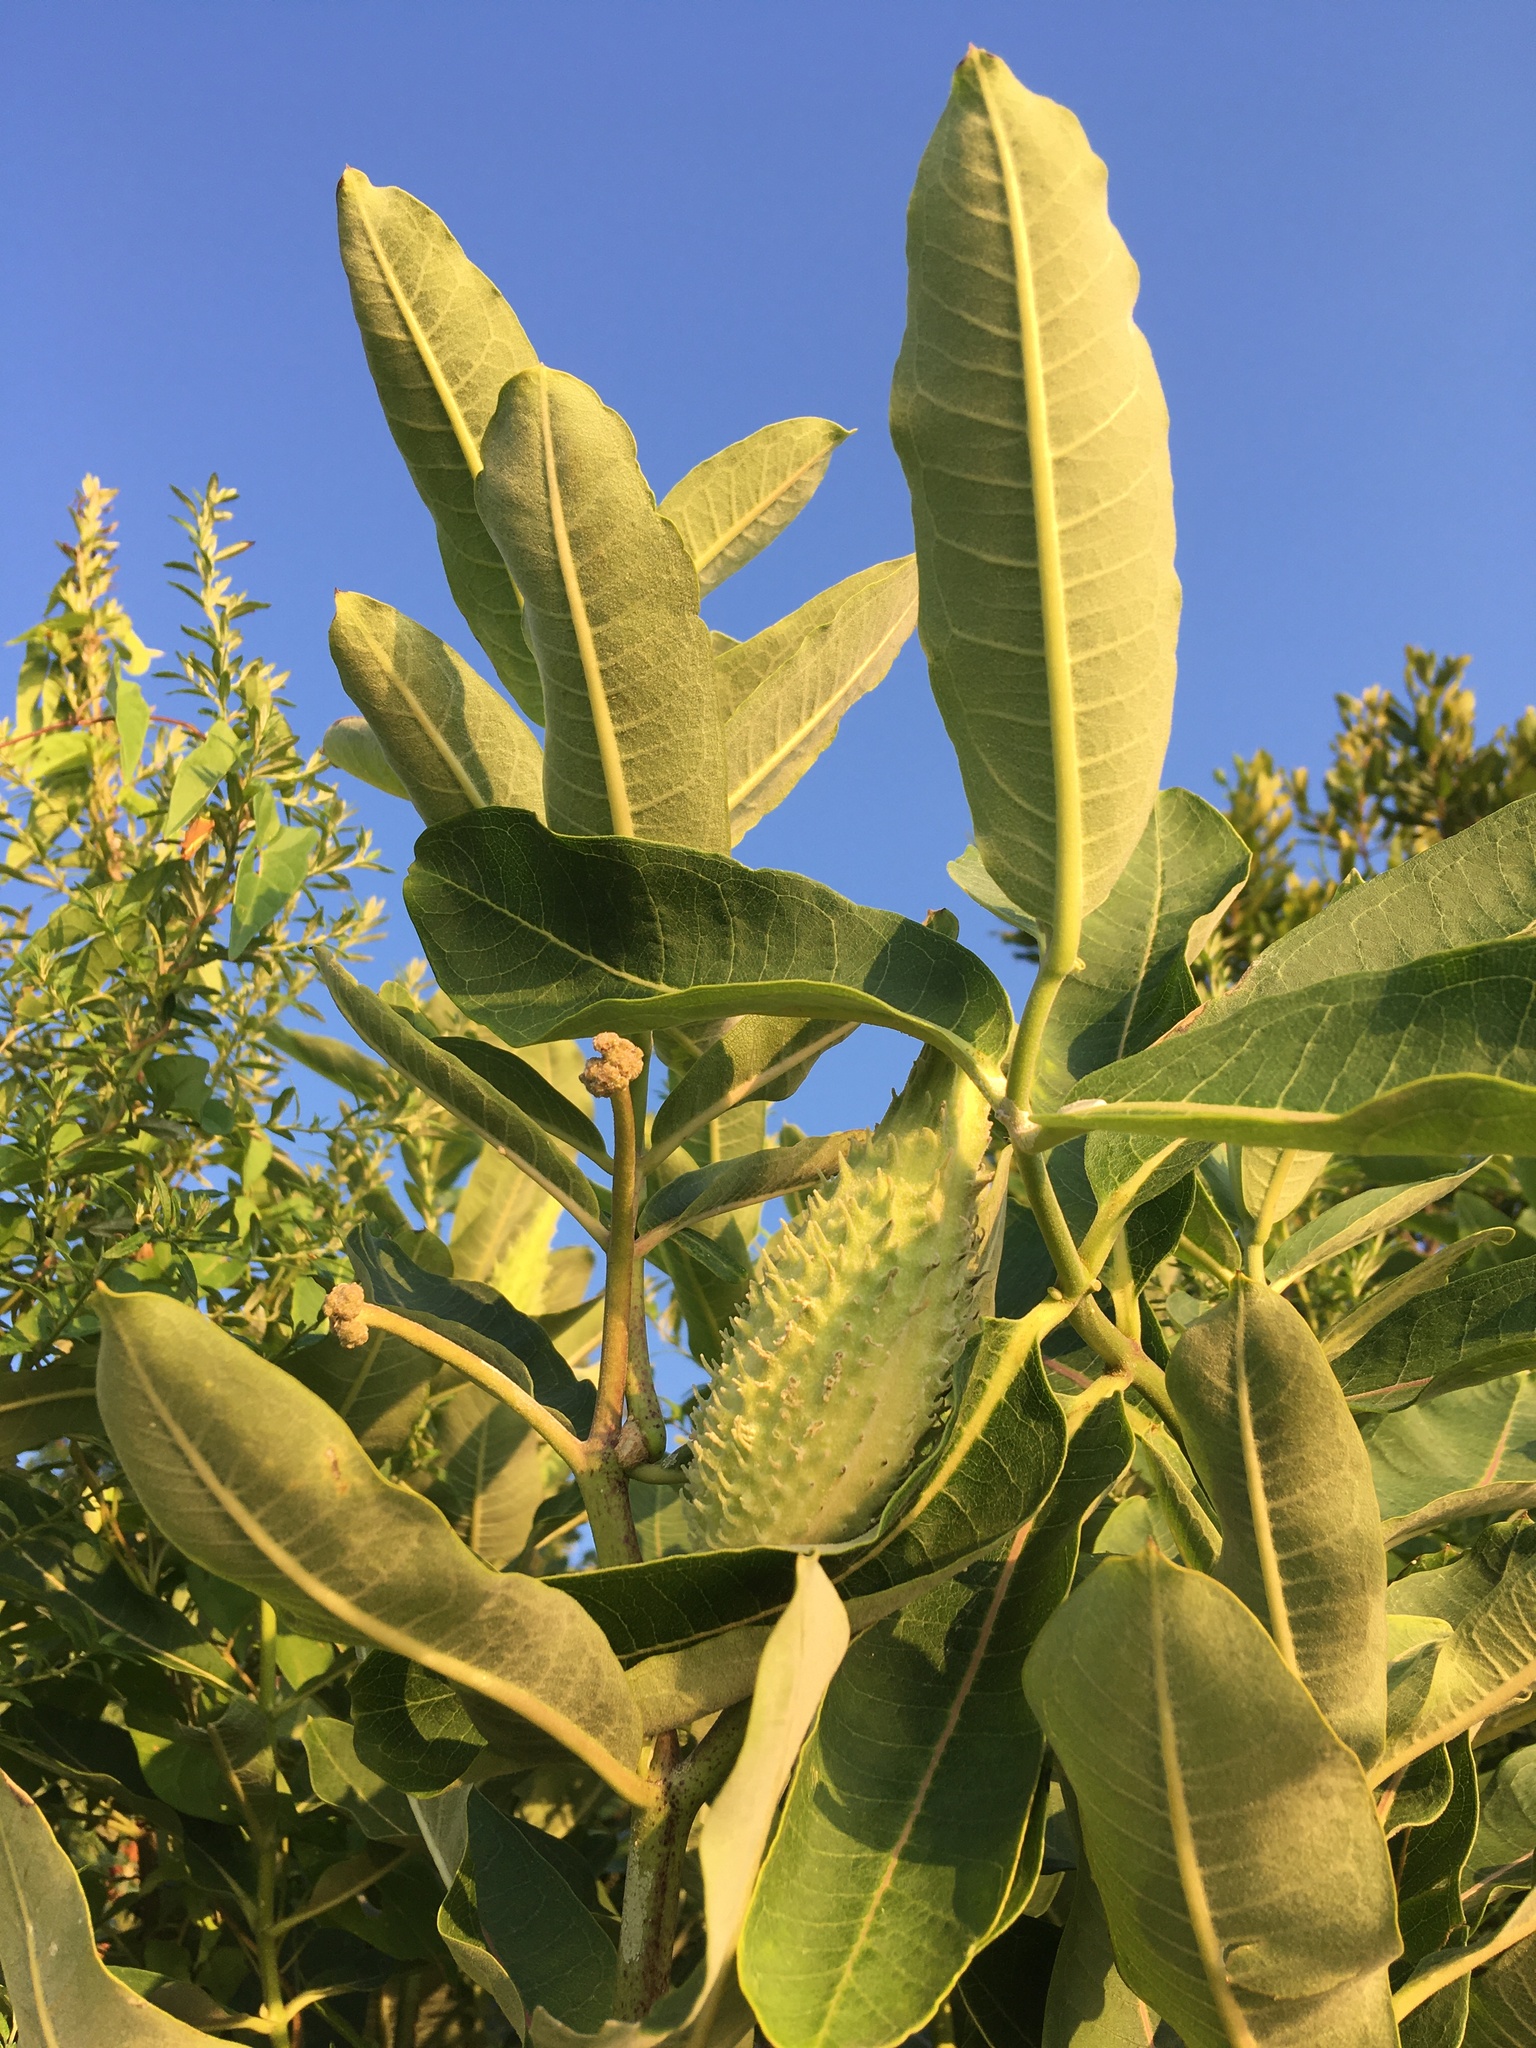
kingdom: Plantae
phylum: Tracheophyta
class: Magnoliopsida
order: Gentianales
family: Apocynaceae
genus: Asclepias
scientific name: Asclepias syriaca
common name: Common milkweed
